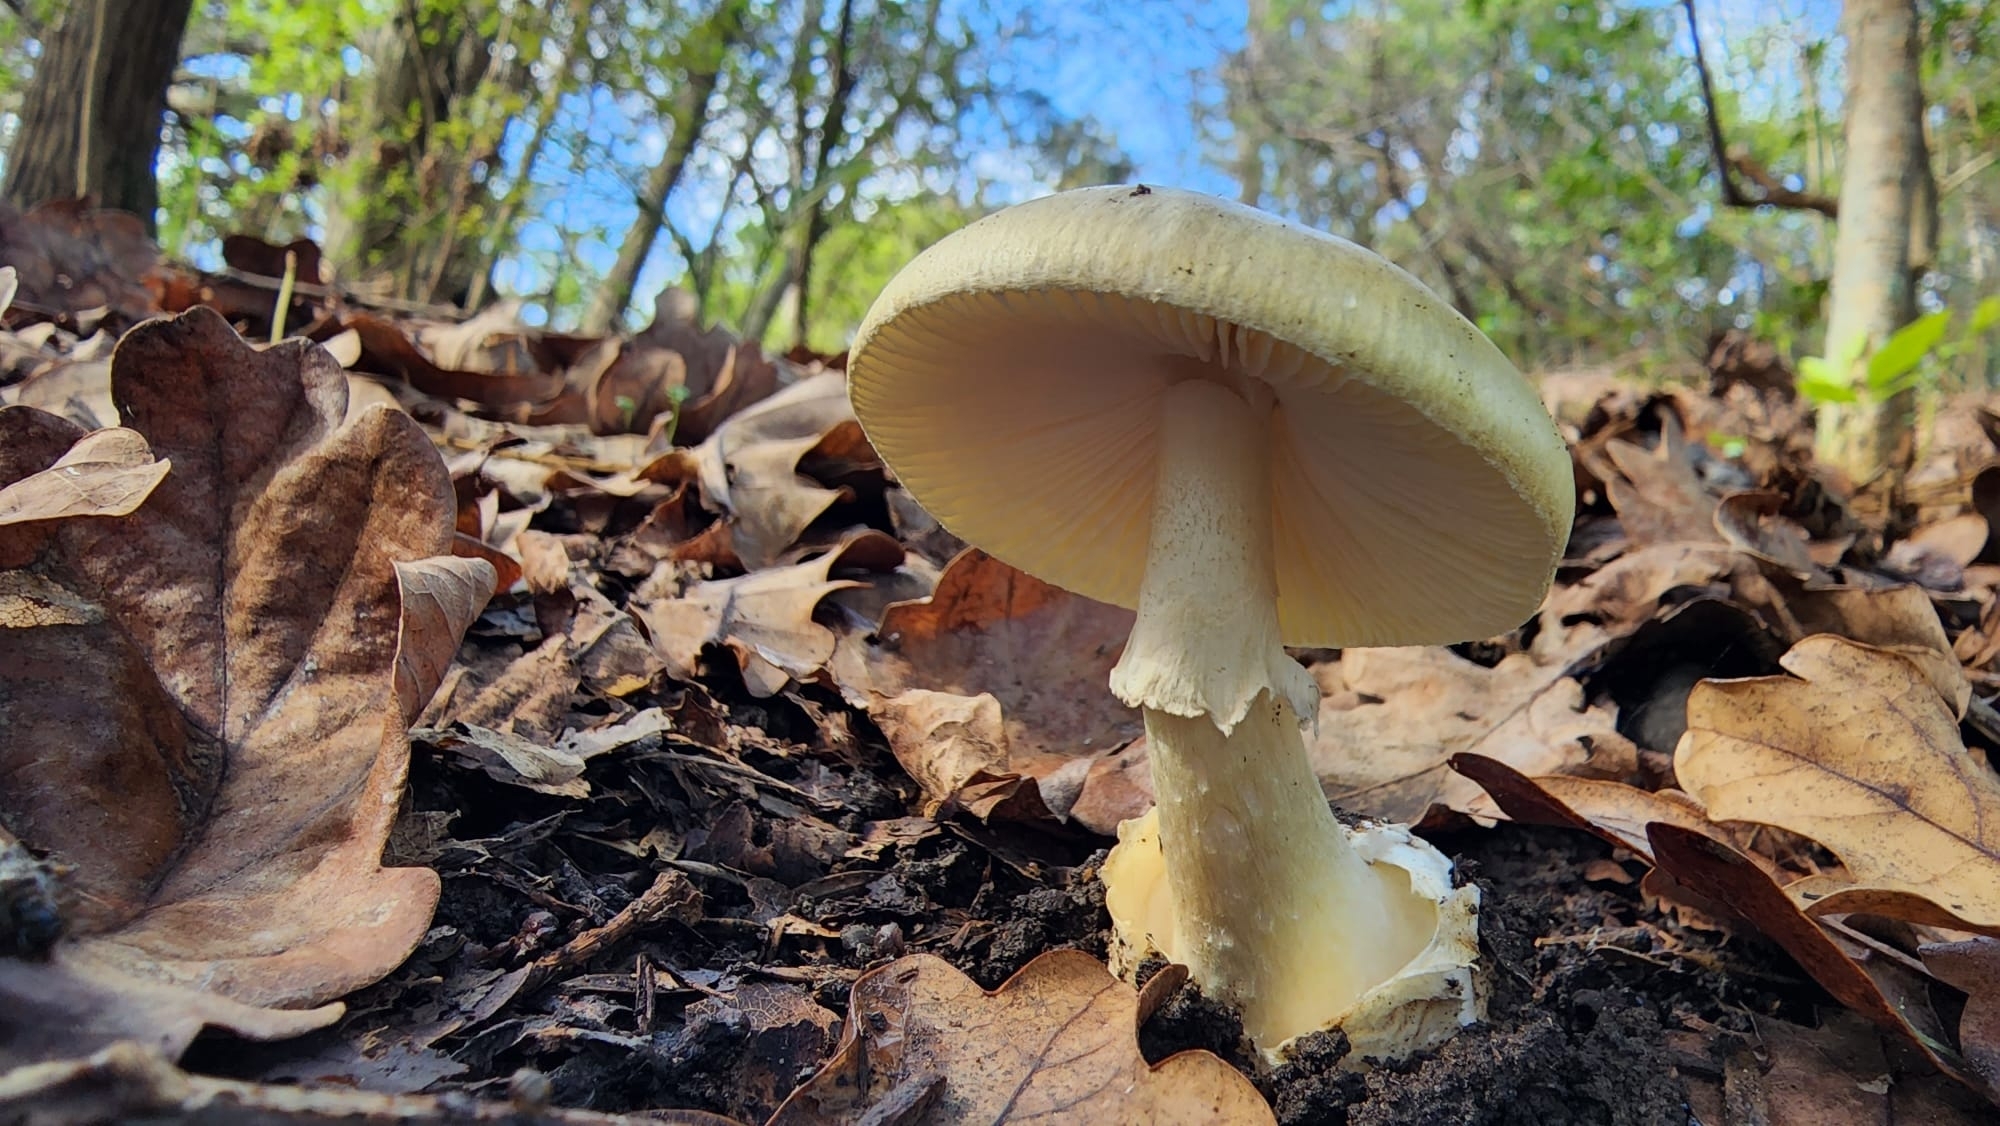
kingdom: Fungi
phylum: Basidiomycota
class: Agaricomycetes
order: Agaricales
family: Amanitaceae
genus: Amanita
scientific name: Amanita phalloides
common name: Death cap
